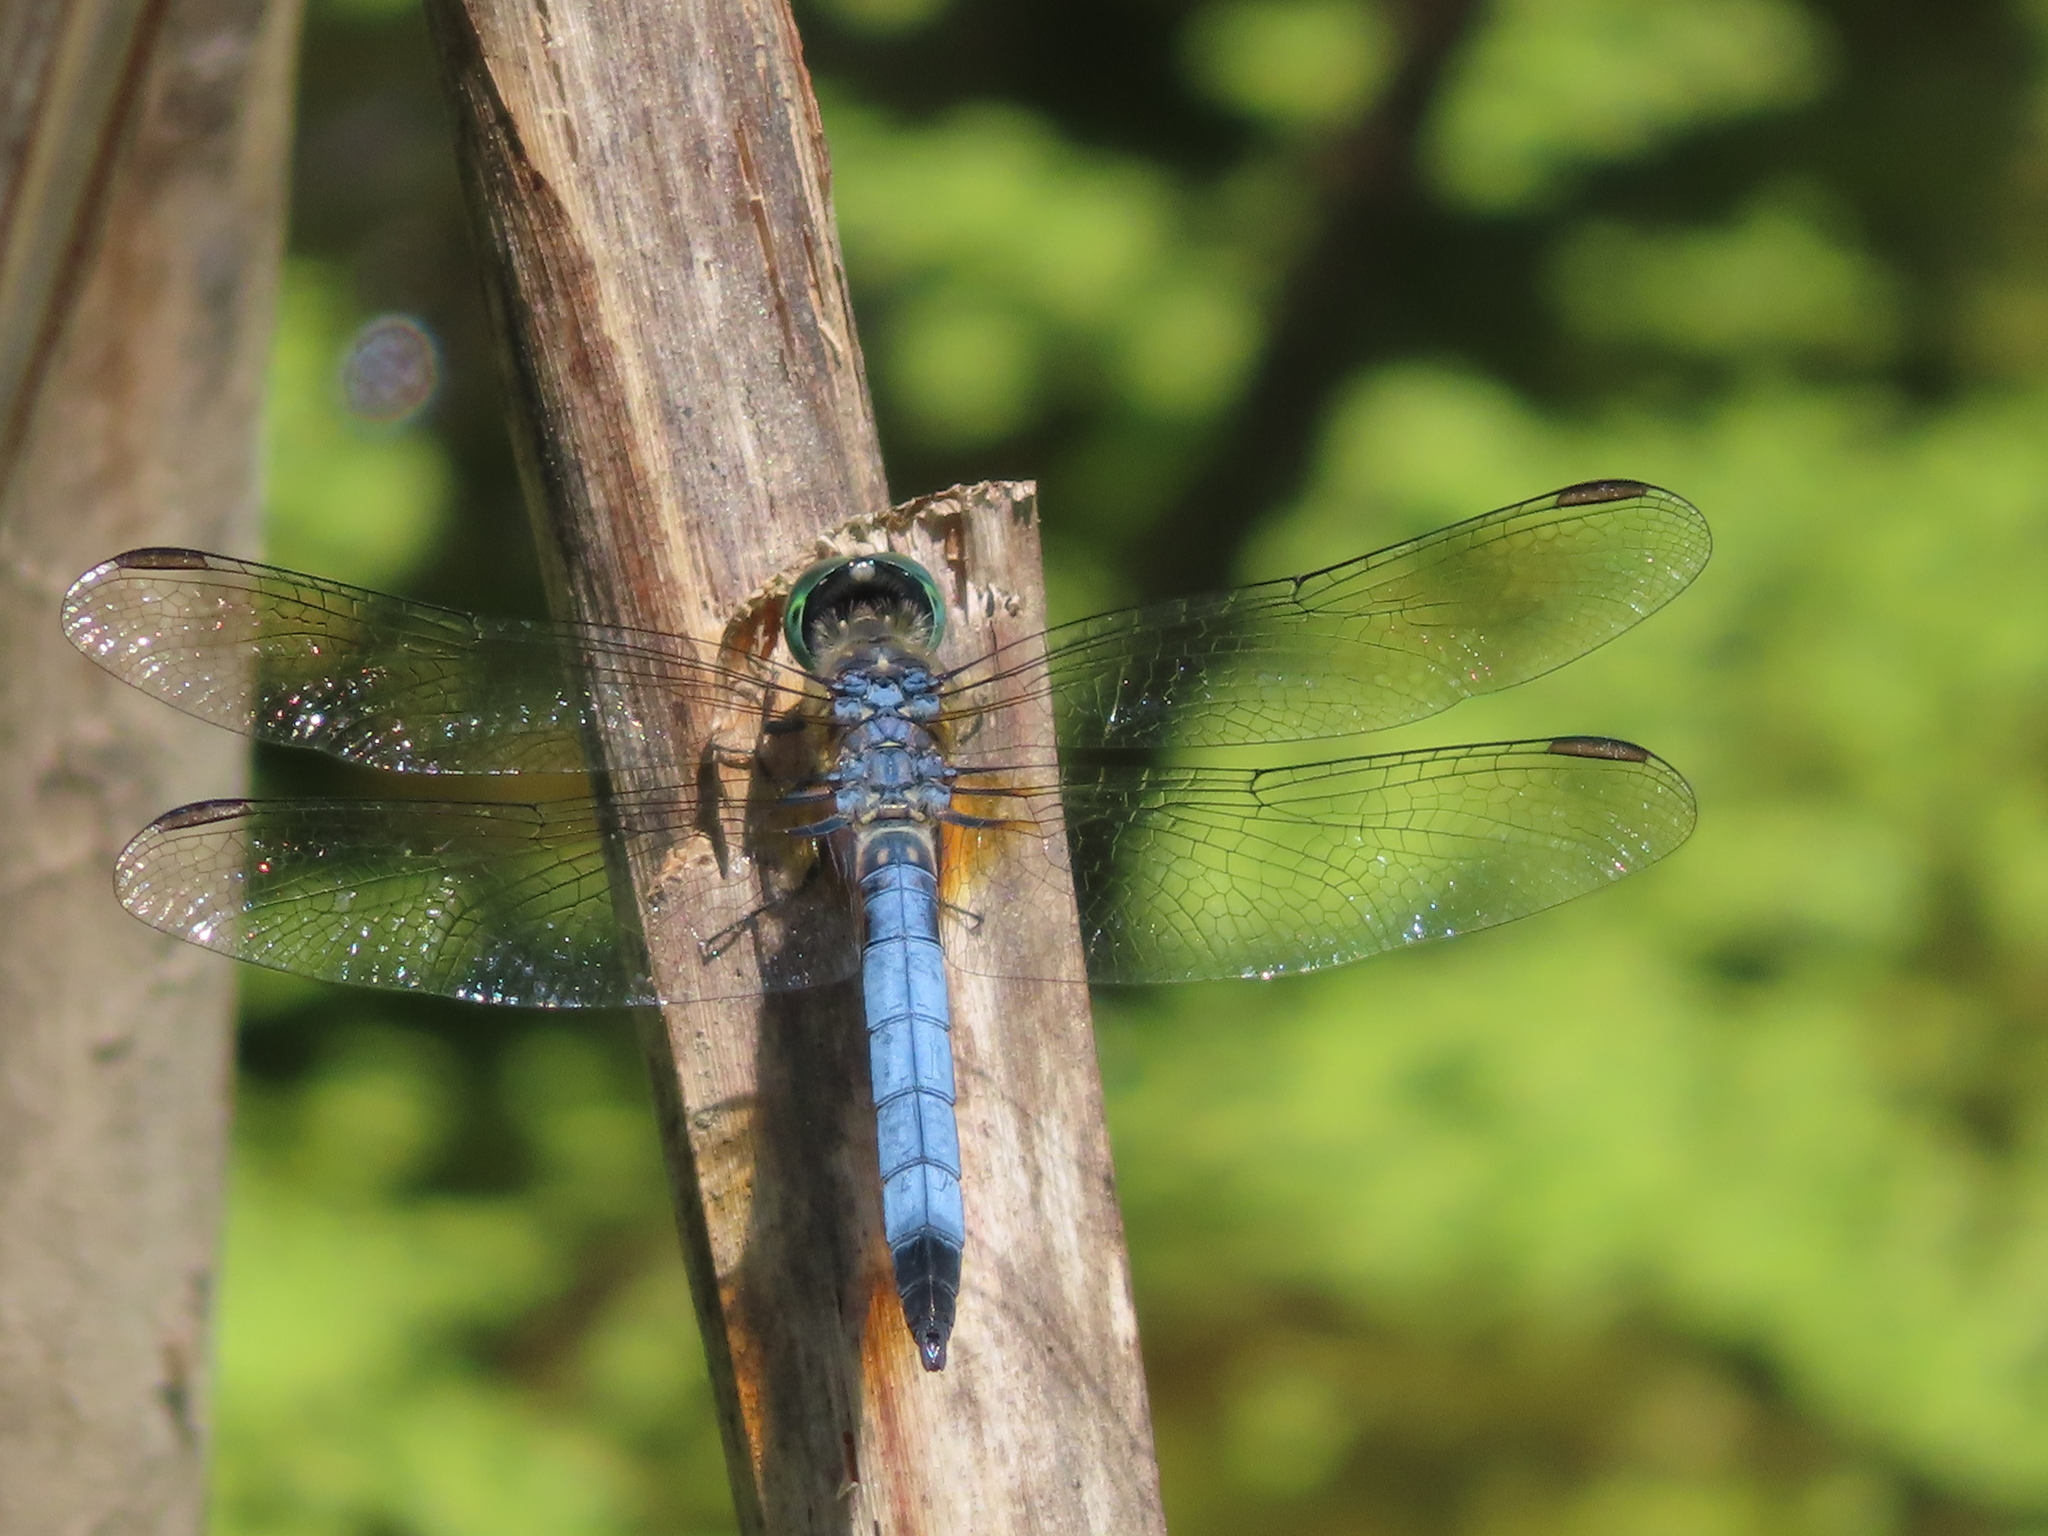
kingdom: Animalia
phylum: Arthropoda
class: Insecta
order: Odonata
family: Libellulidae
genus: Pachydiplax
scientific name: Pachydiplax longipennis
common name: Blue dasher
